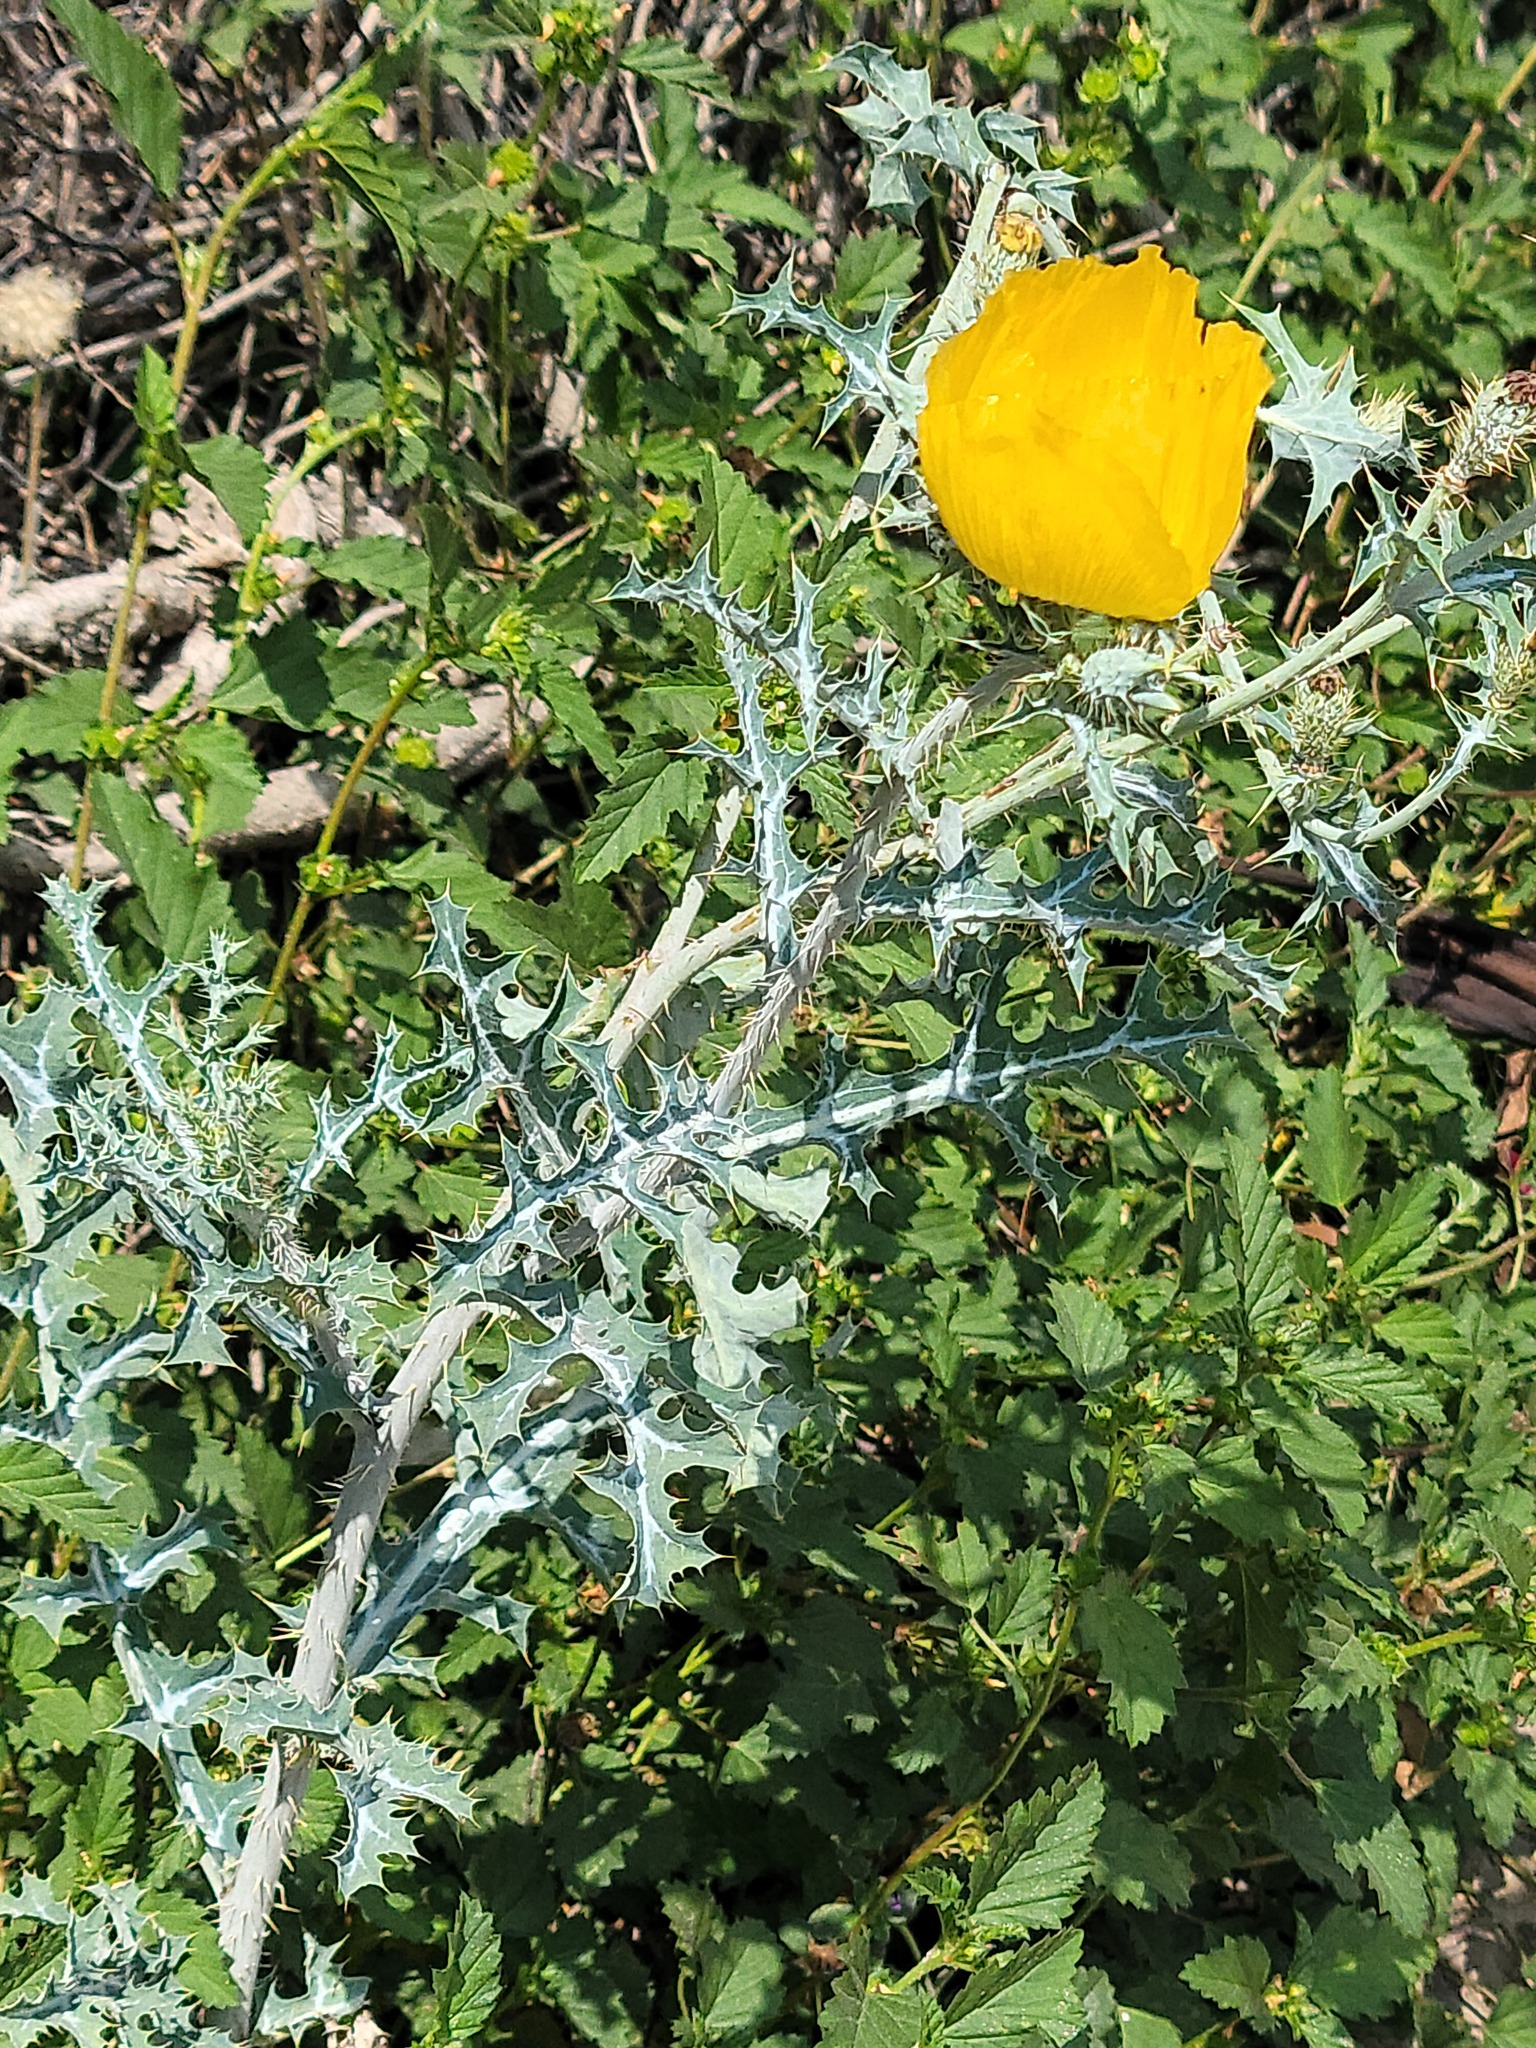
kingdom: Plantae
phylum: Tracheophyta
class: Magnoliopsida
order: Ranunculales
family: Papaveraceae
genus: Argemone
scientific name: Argemone aenea
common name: Golden prickly-poppy
